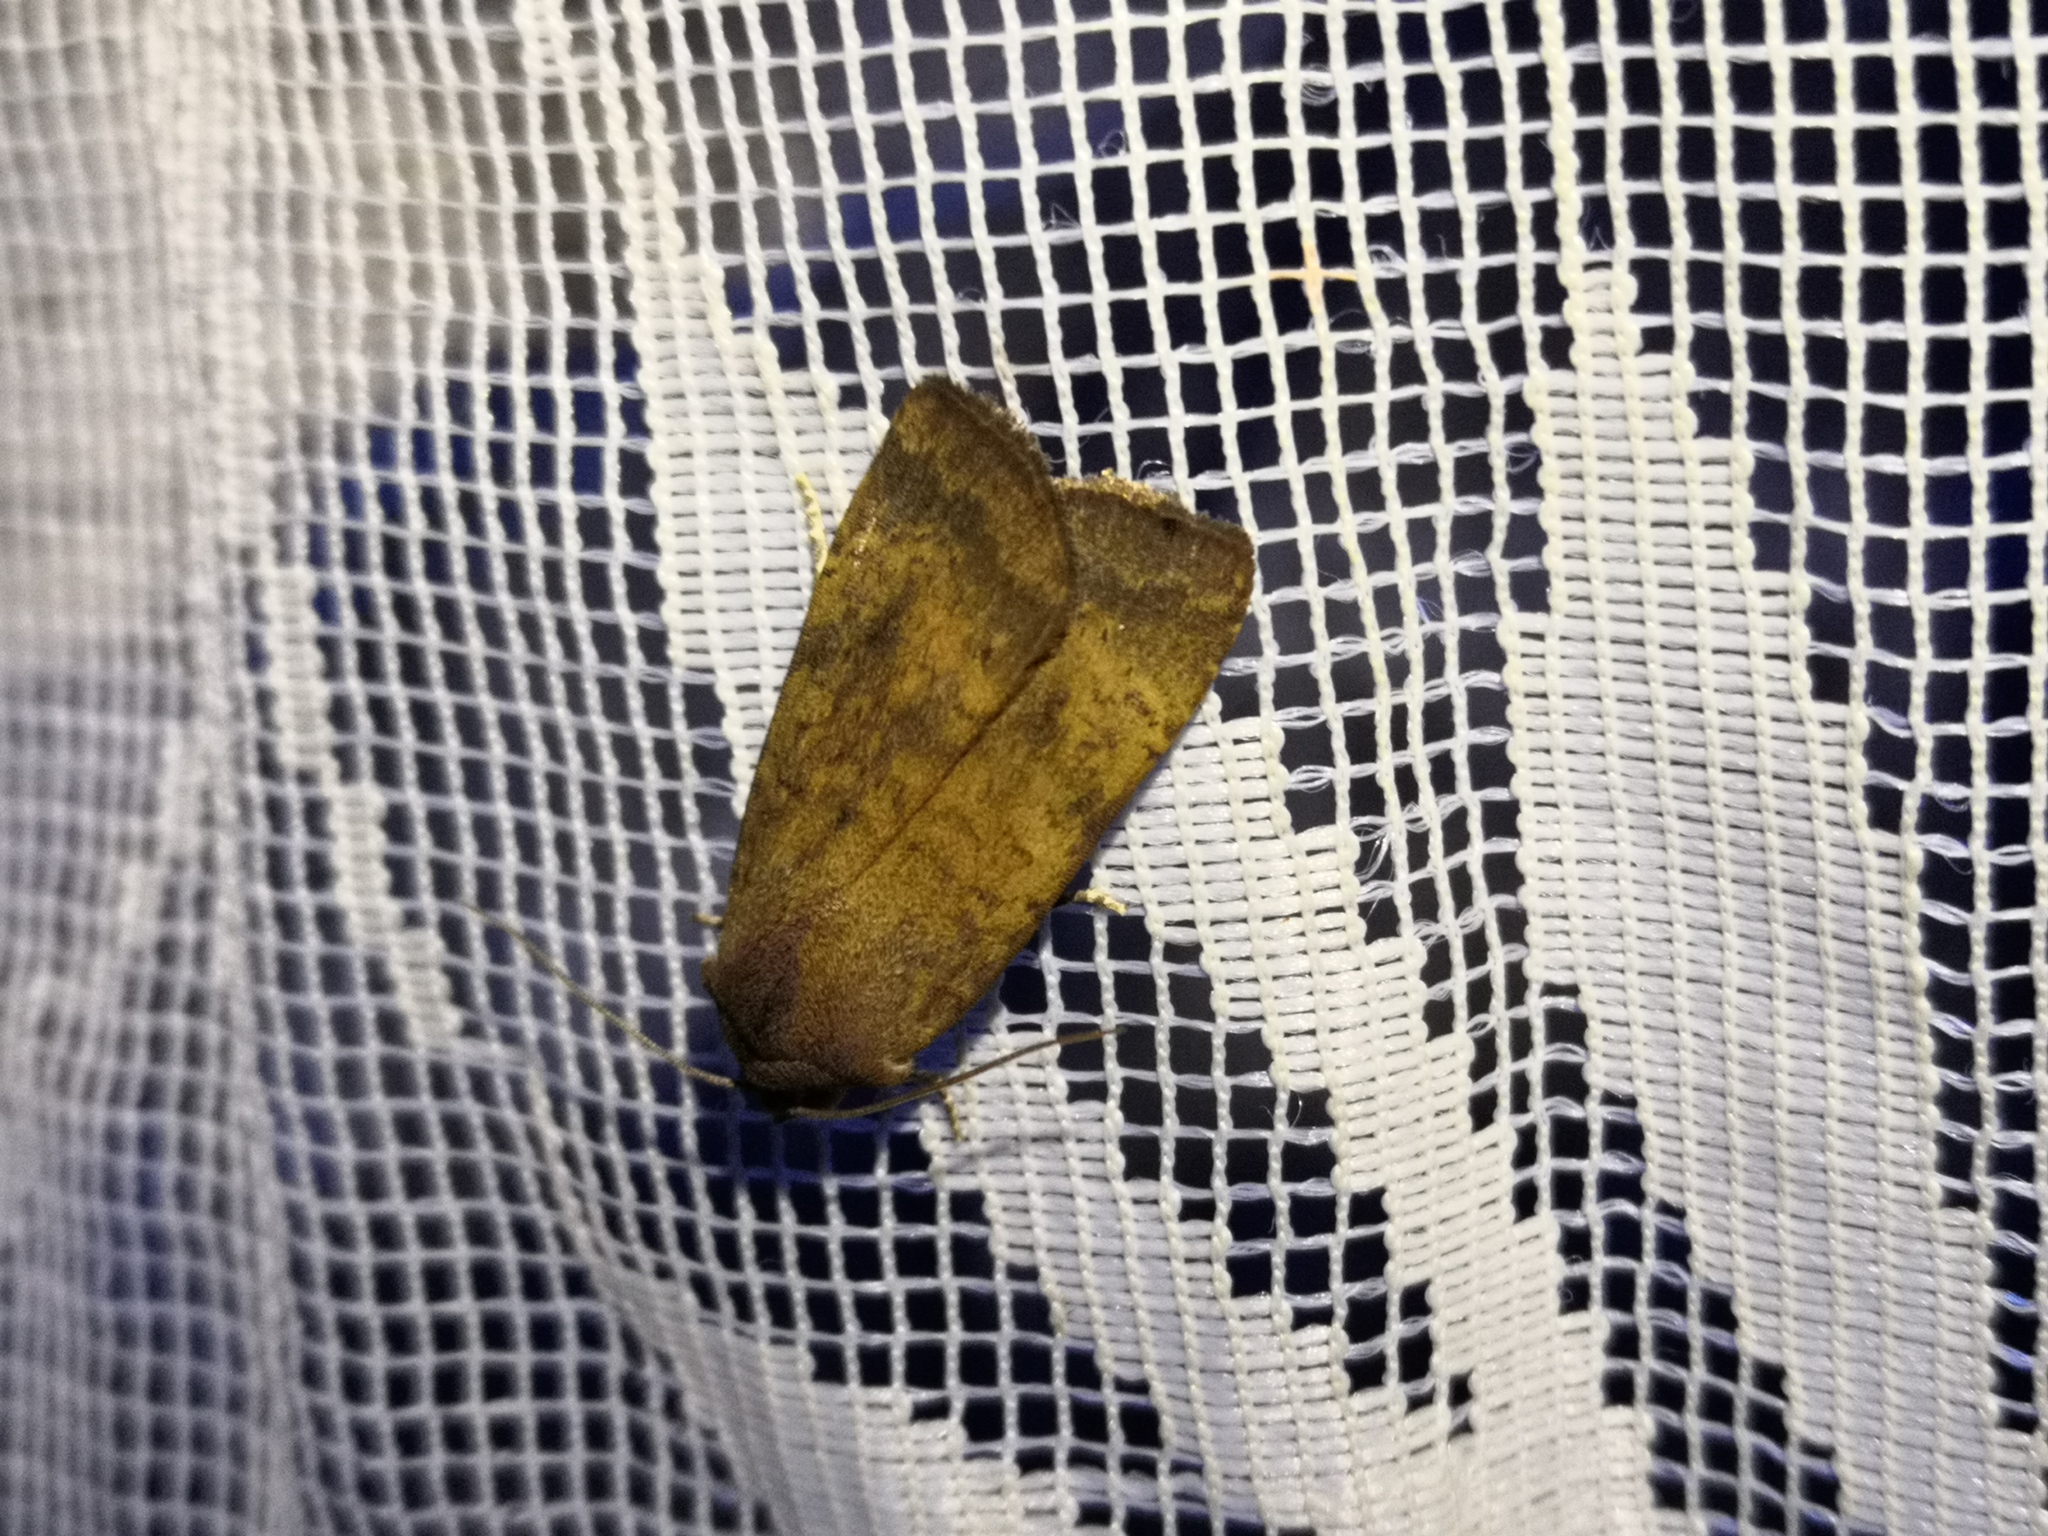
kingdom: Animalia
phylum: Arthropoda
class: Insecta
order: Lepidoptera
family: Noctuidae
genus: Noctua
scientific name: Noctua interjecta
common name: Least yellow underwing
